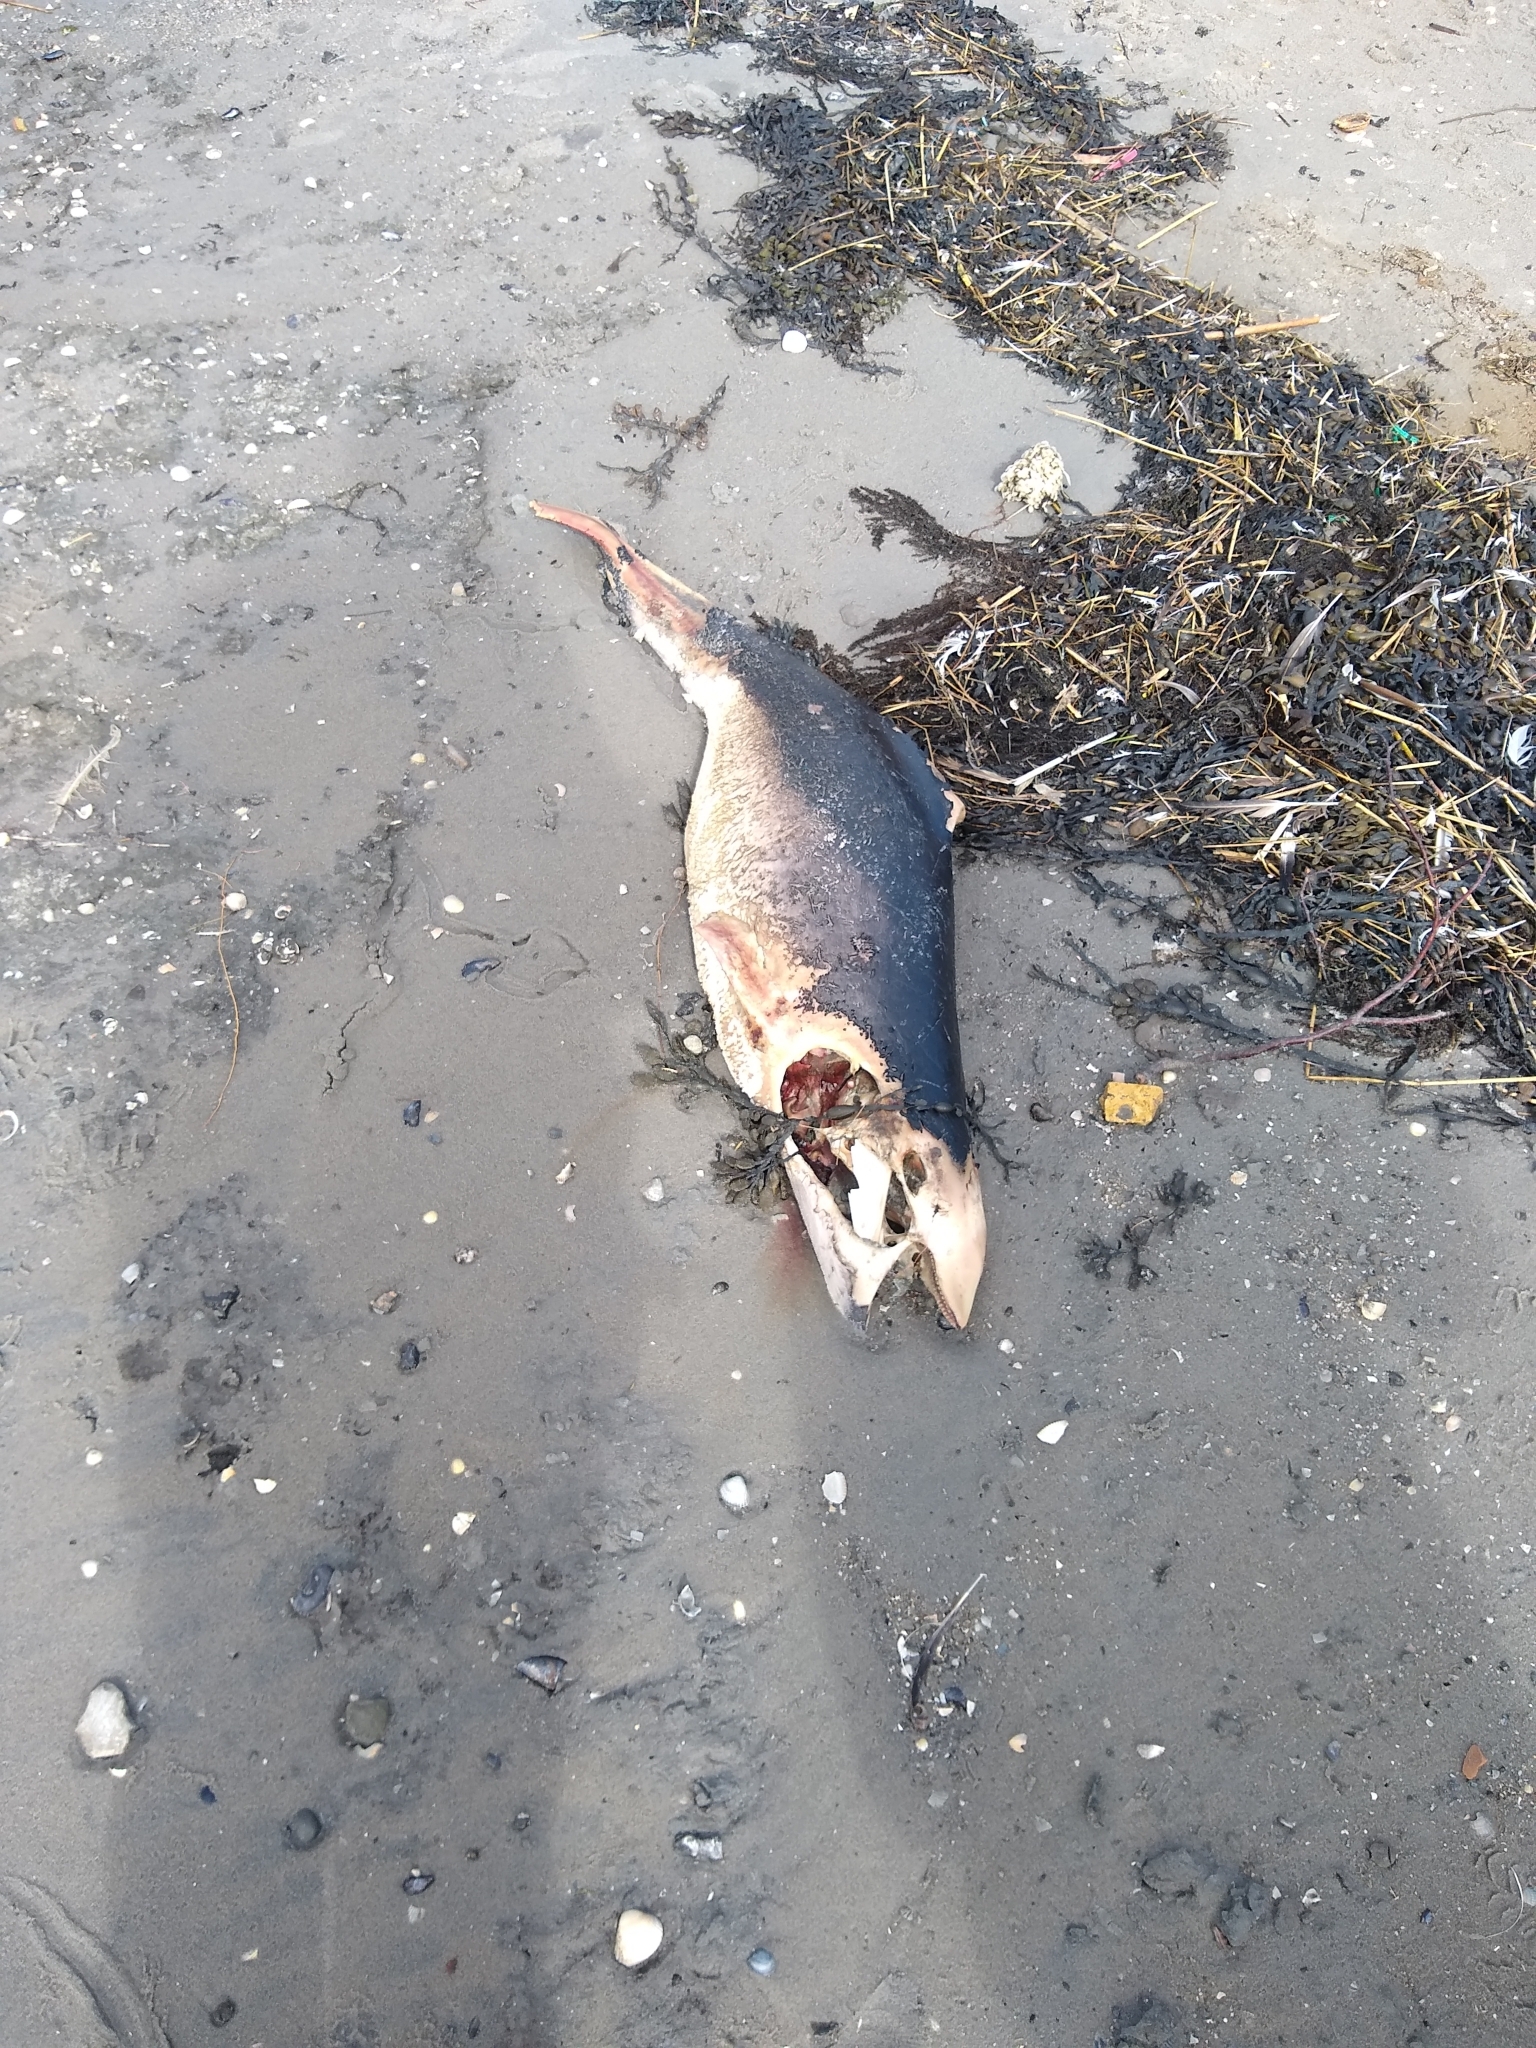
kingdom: Animalia
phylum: Chordata
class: Mammalia
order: Cetacea
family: Phocoenidae
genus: Phocoena
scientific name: Phocoena phocoena
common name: Harbor porpoise
